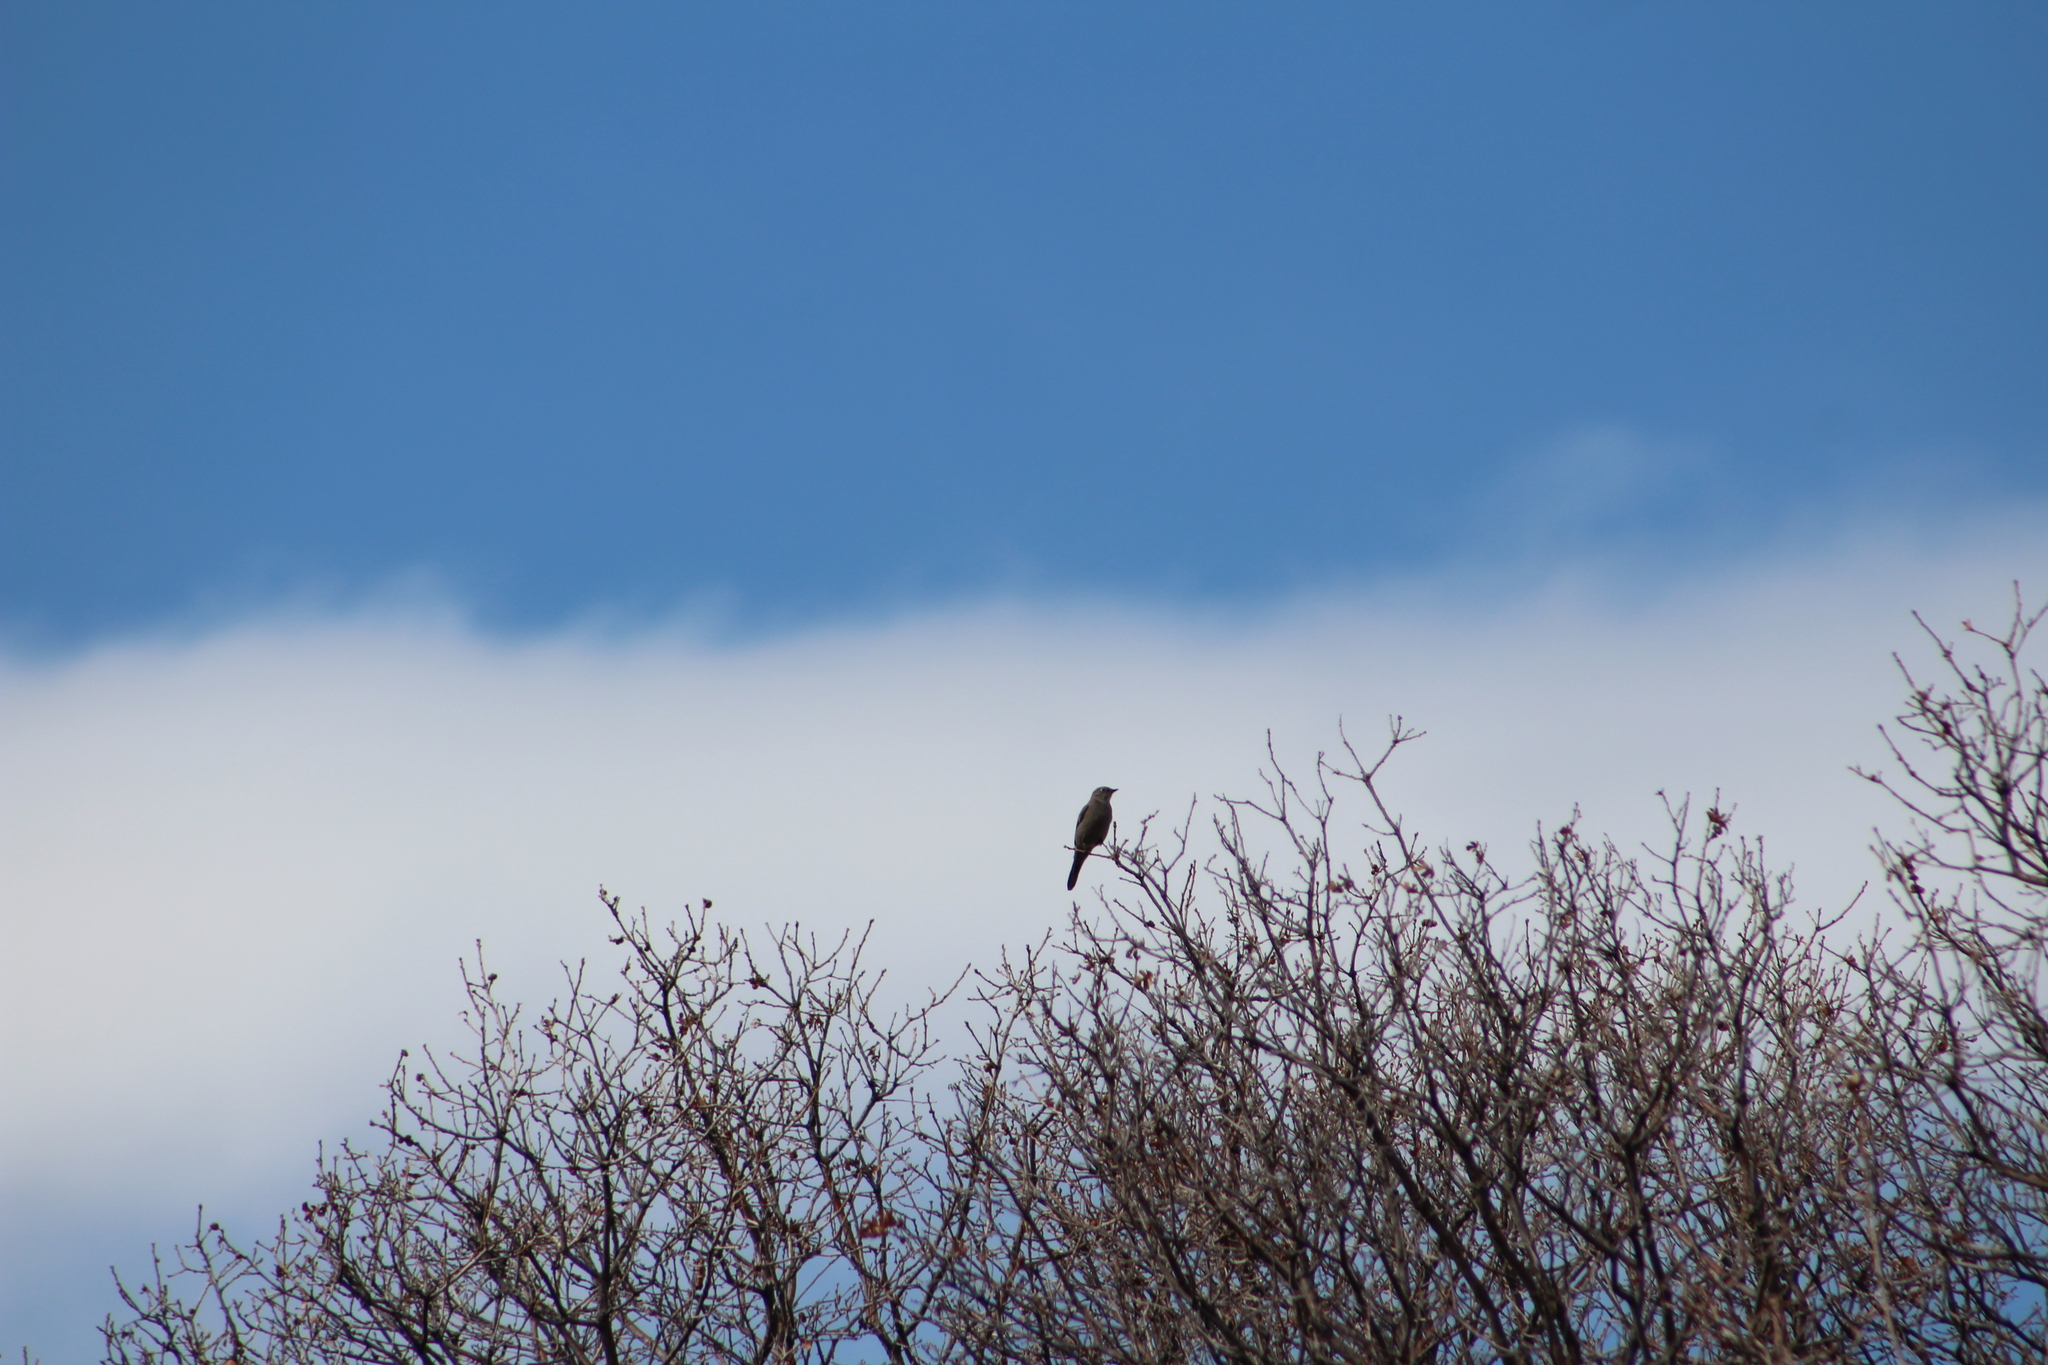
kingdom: Animalia
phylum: Chordata
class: Aves
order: Passeriformes
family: Turdidae
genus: Myadestes
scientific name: Myadestes townsendi
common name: Townsend's solitaire
